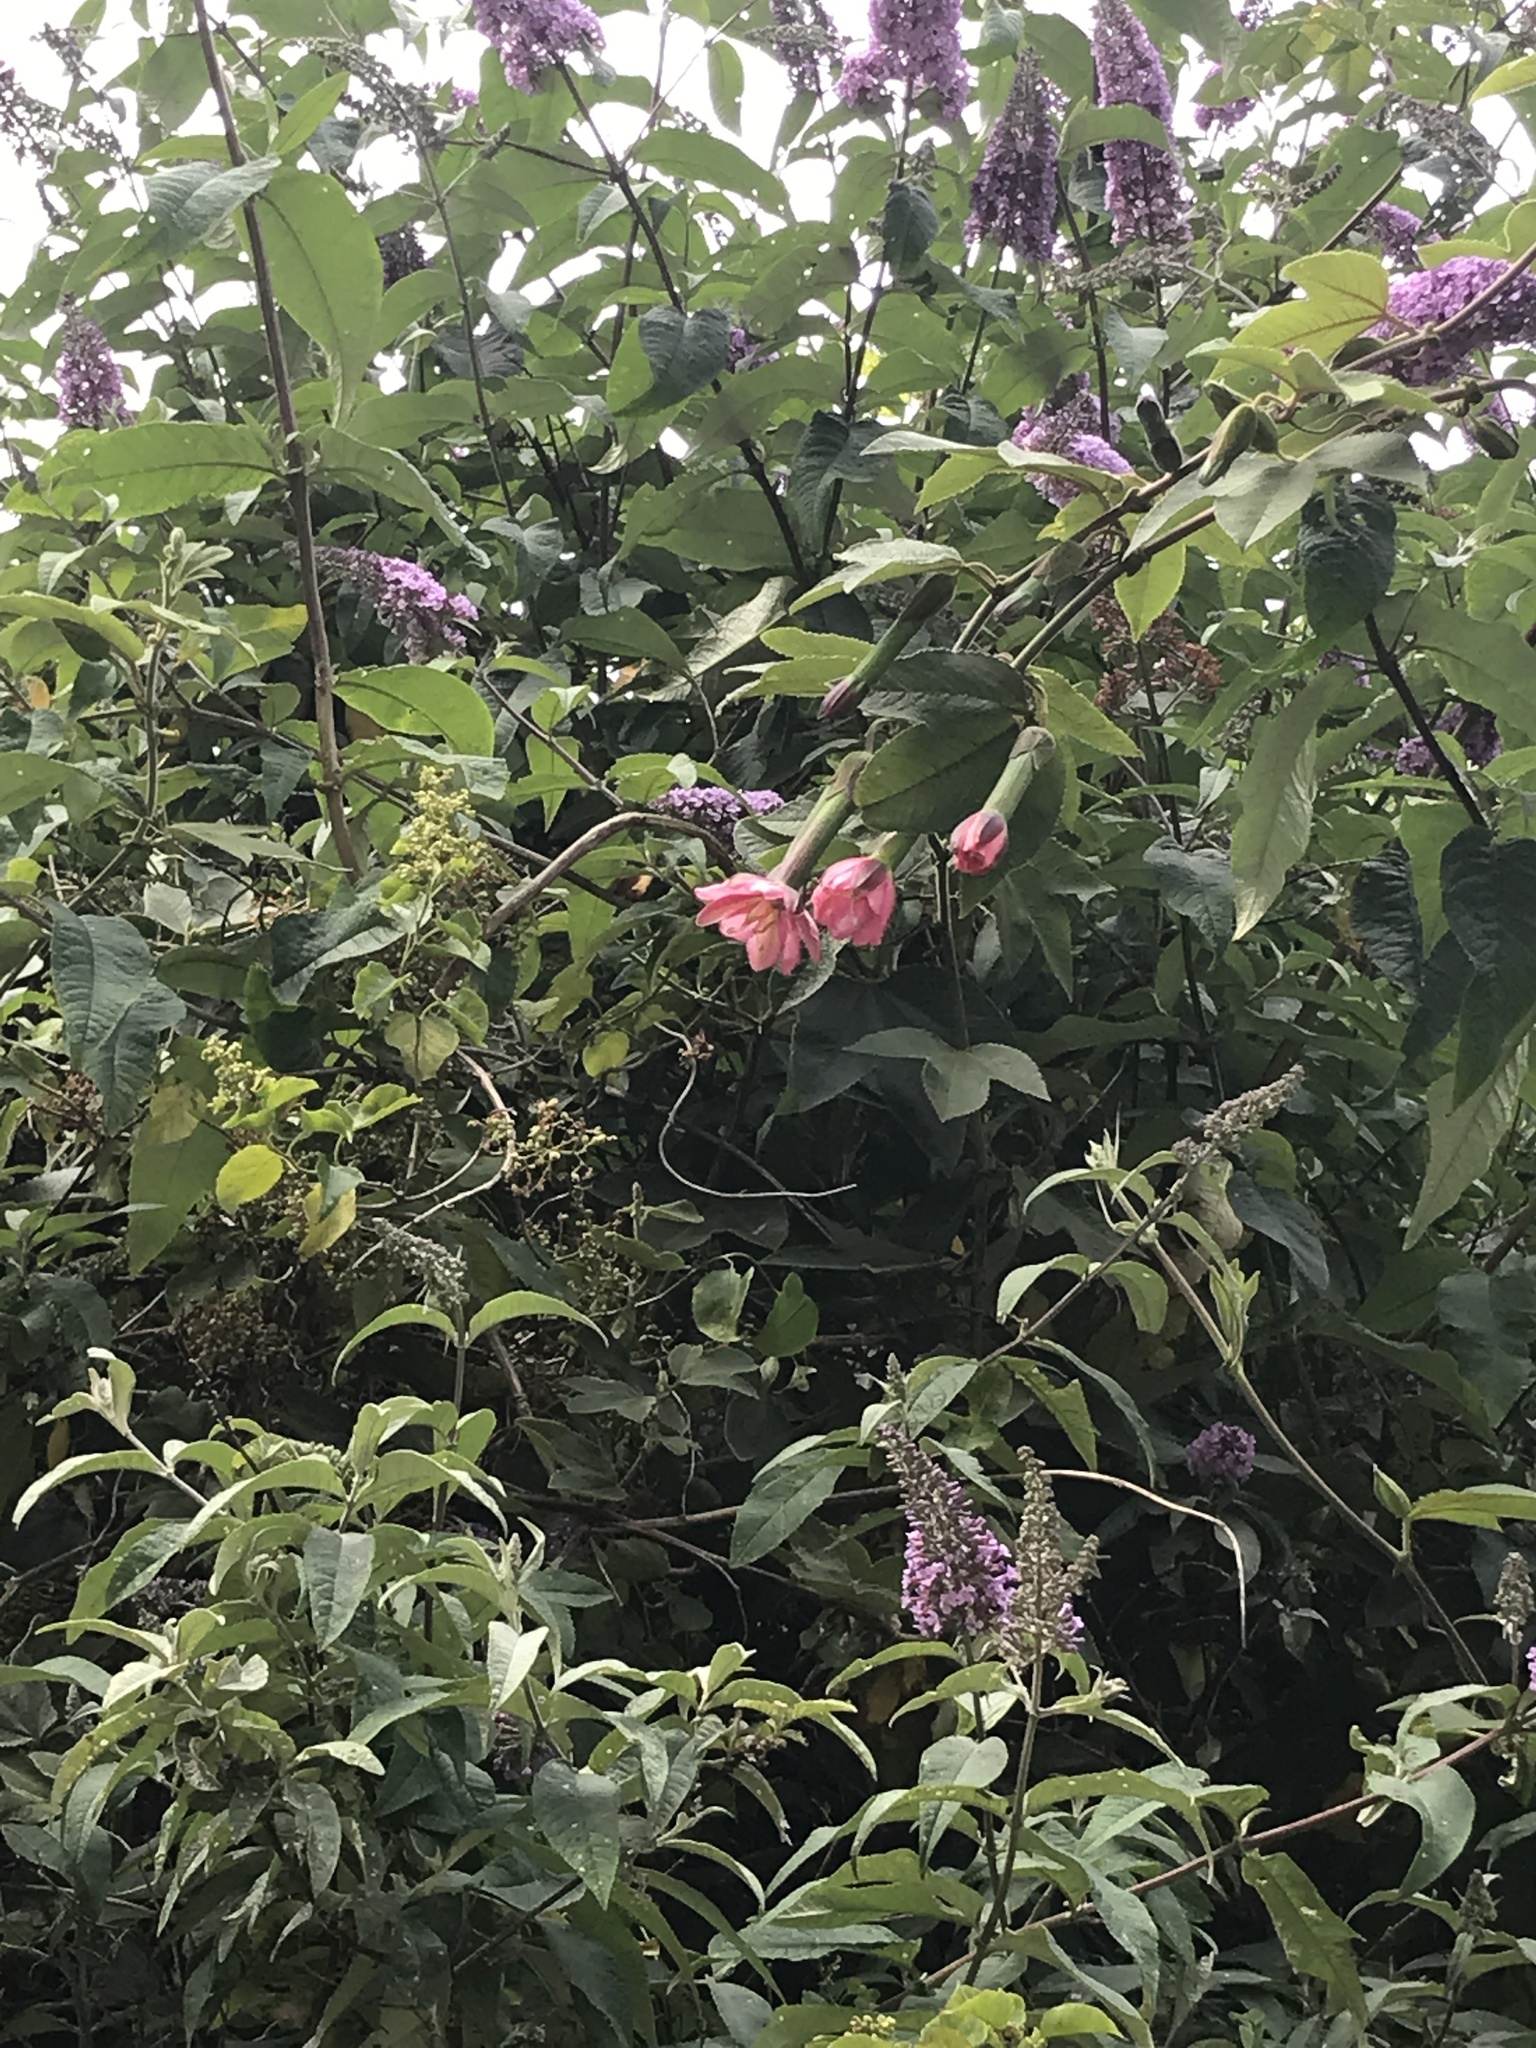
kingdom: Plantae
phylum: Tracheophyta
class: Magnoliopsida
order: Malpighiales
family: Passifloraceae
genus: Passiflora
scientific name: Passiflora tripartita
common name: Banana poka
